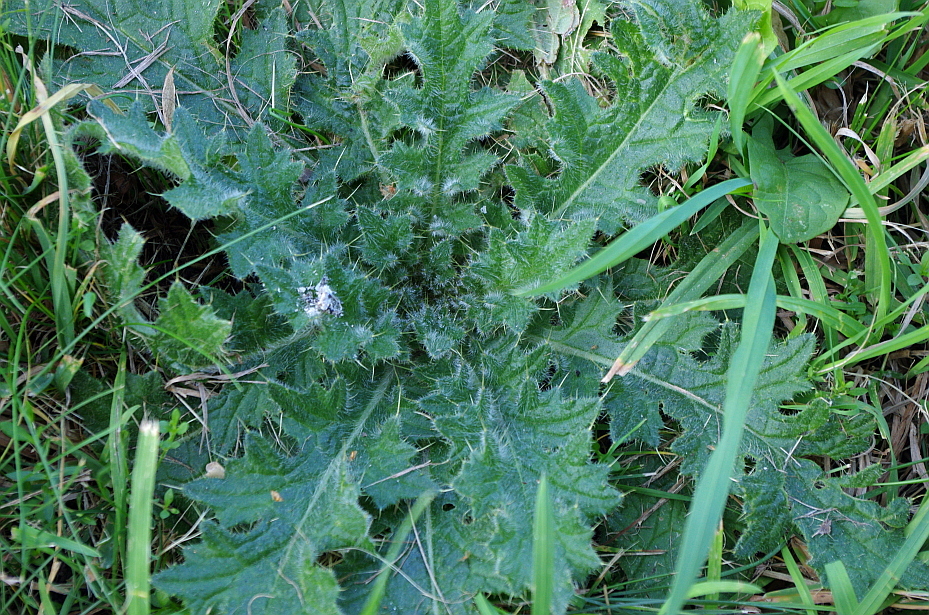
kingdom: Plantae
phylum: Tracheophyta
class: Magnoliopsida
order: Asterales
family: Asteraceae
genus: Cirsium
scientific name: Cirsium vulgare
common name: Bull thistle
